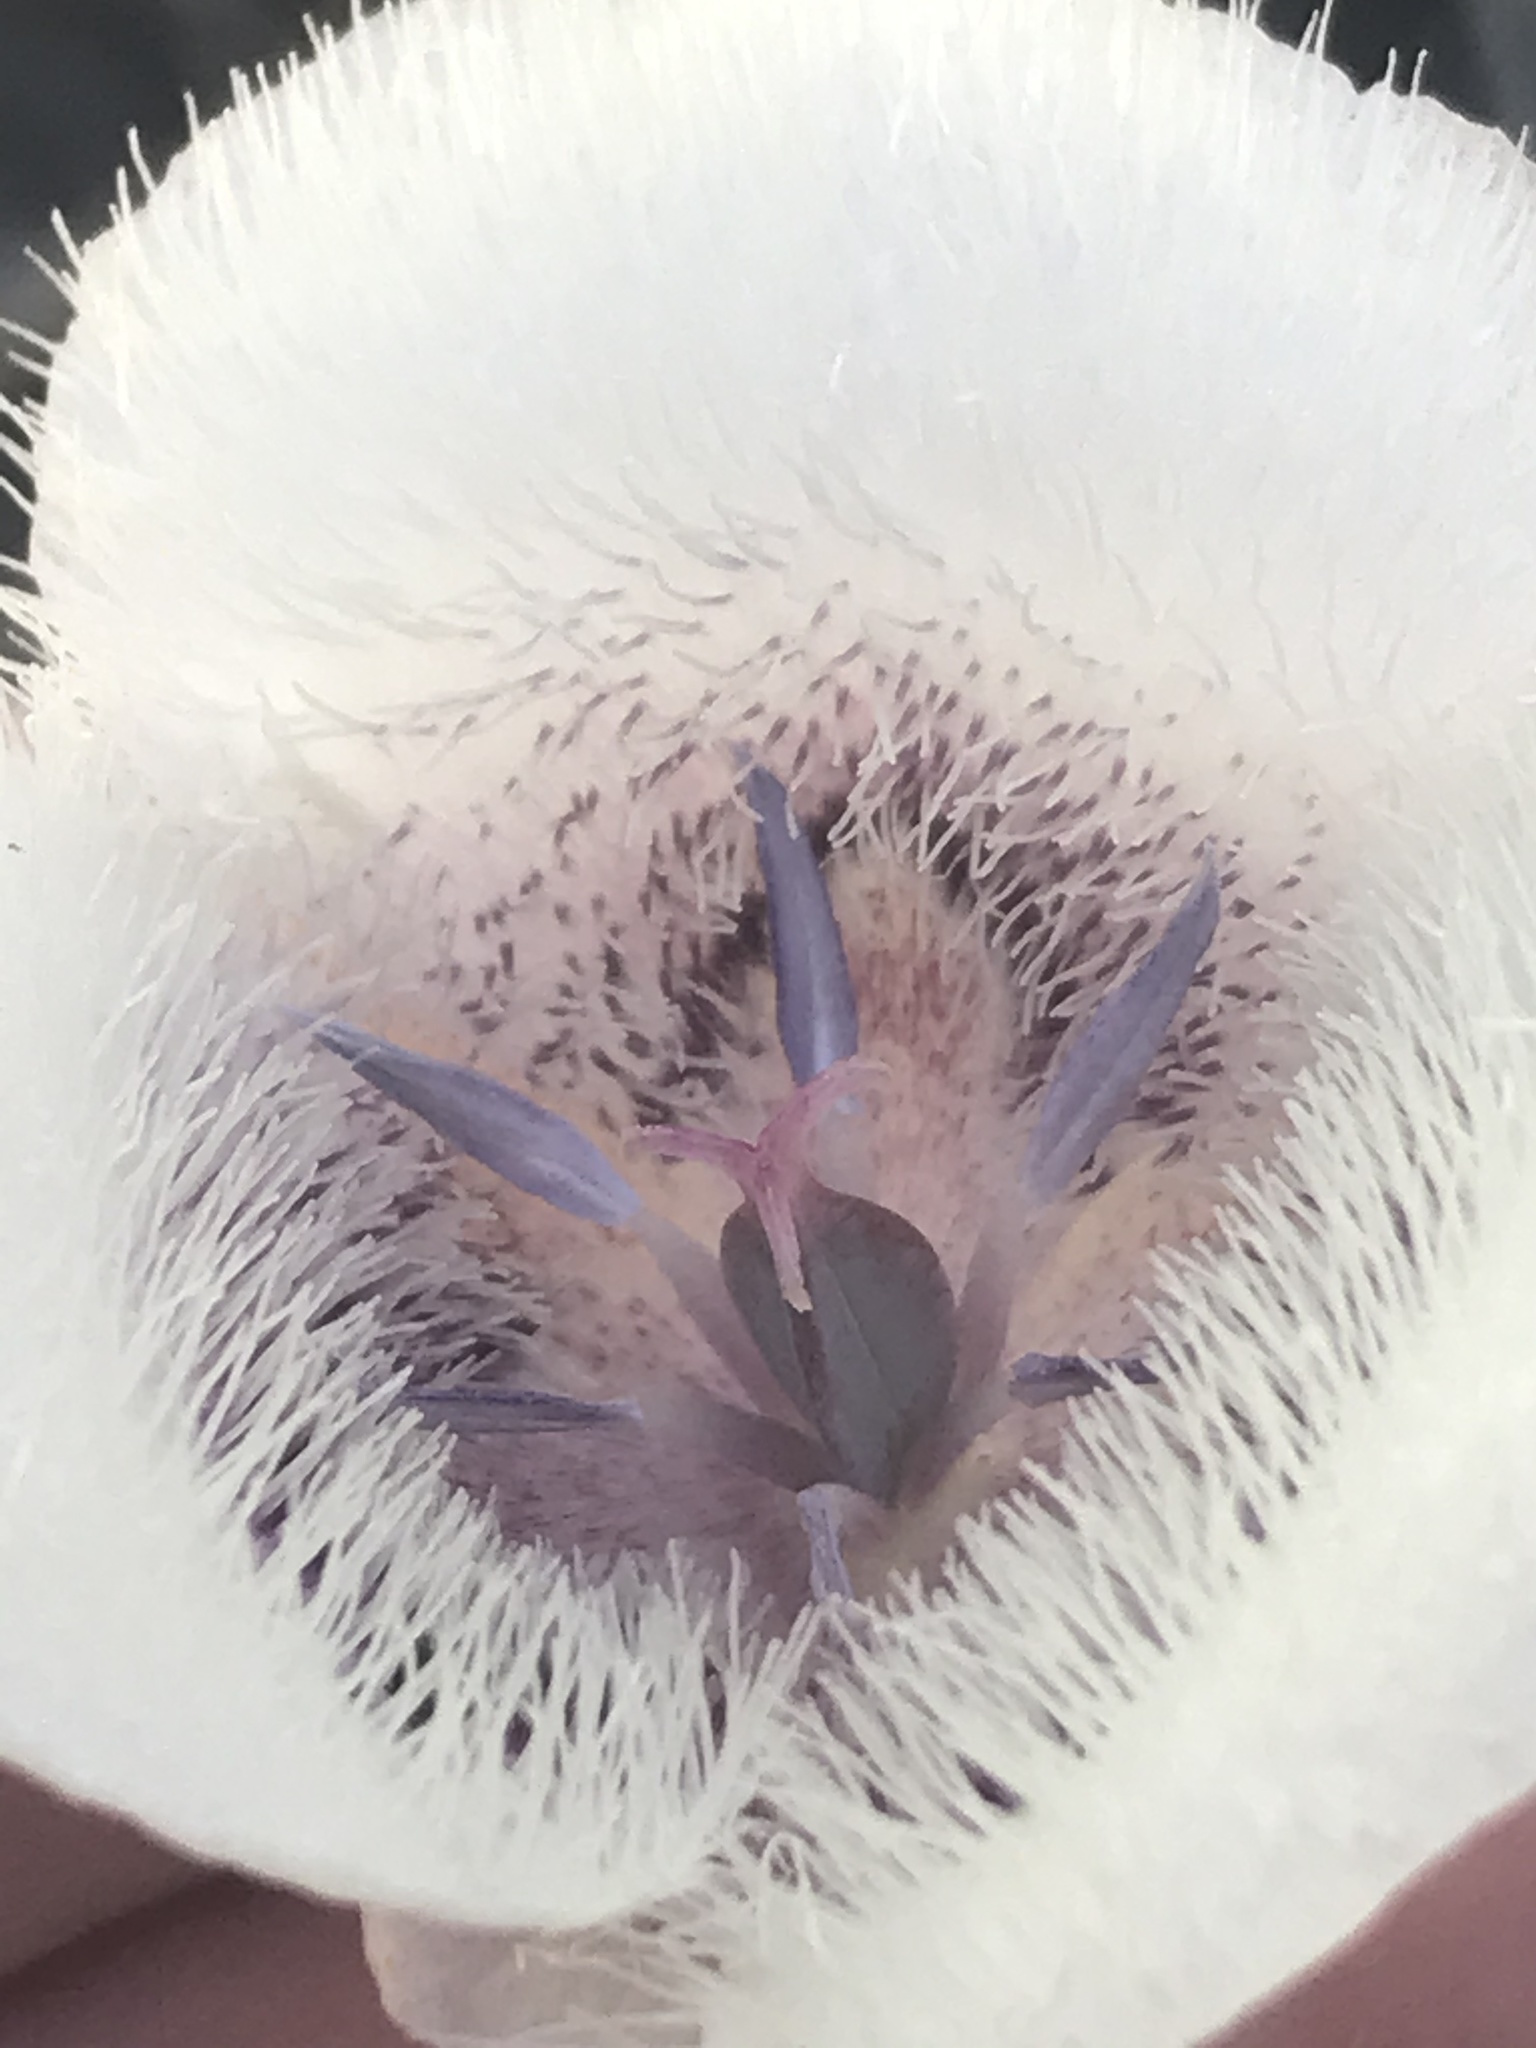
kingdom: Plantae
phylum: Tracheophyta
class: Liliopsida
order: Liliales
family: Liliaceae
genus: Calochortus
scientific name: Calochortus tolmiei
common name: Pussy-ears
